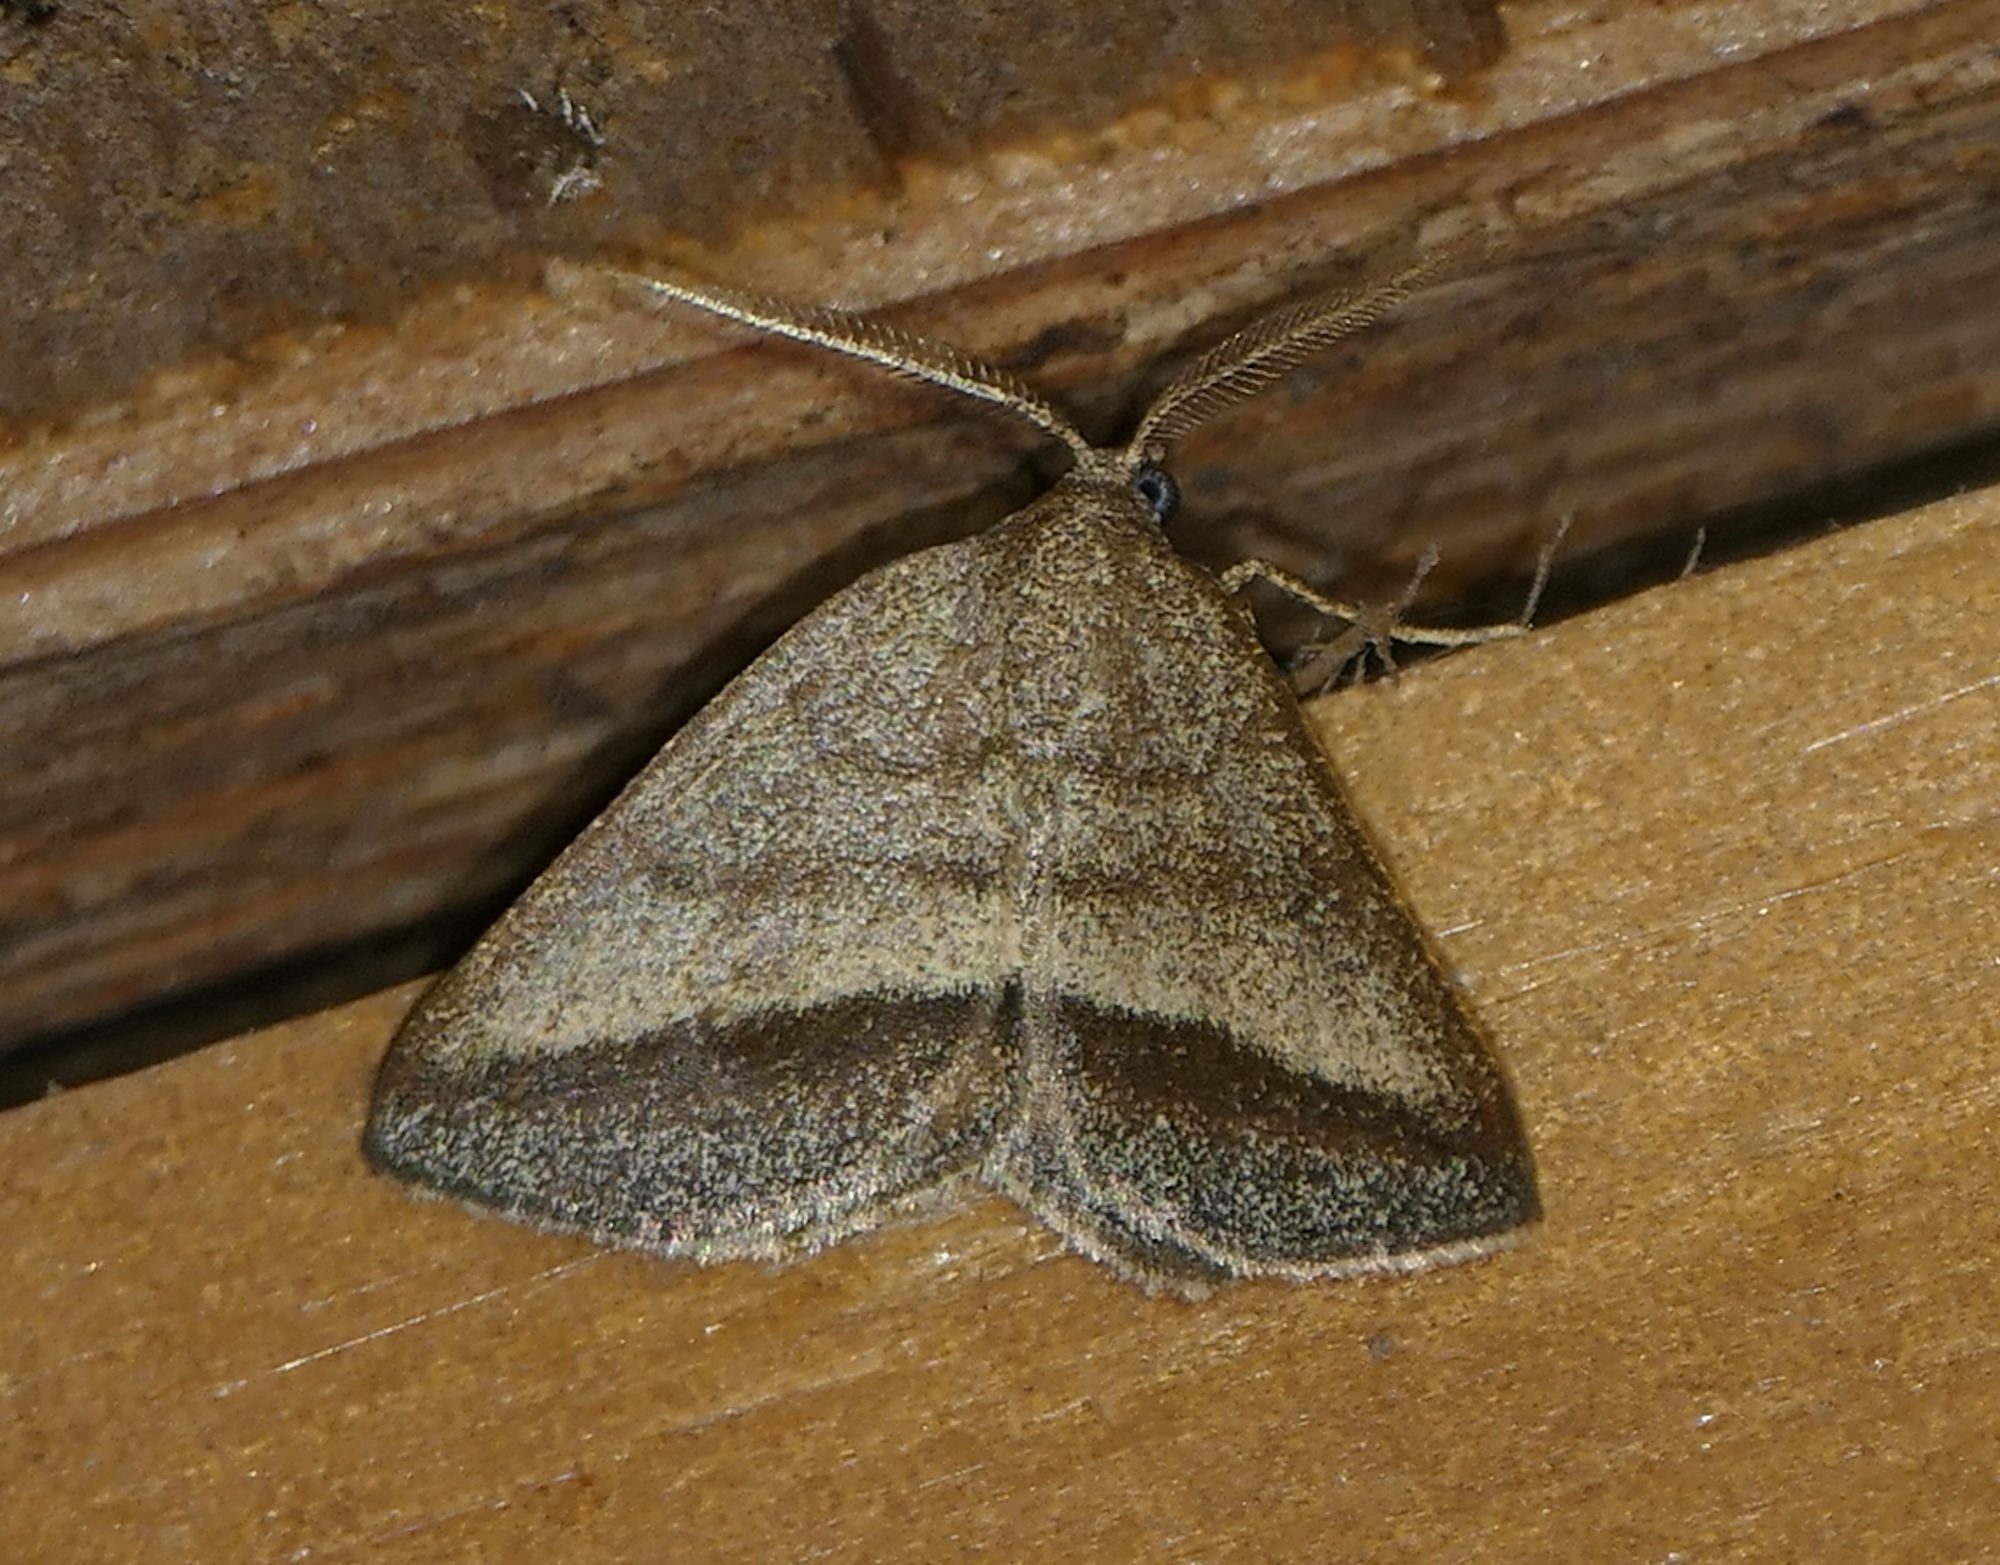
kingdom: Animalia
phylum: Arthropoda
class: Insecta
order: Lepidoptera
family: Geometridae
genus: Macaria
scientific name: Macaria varadaria
